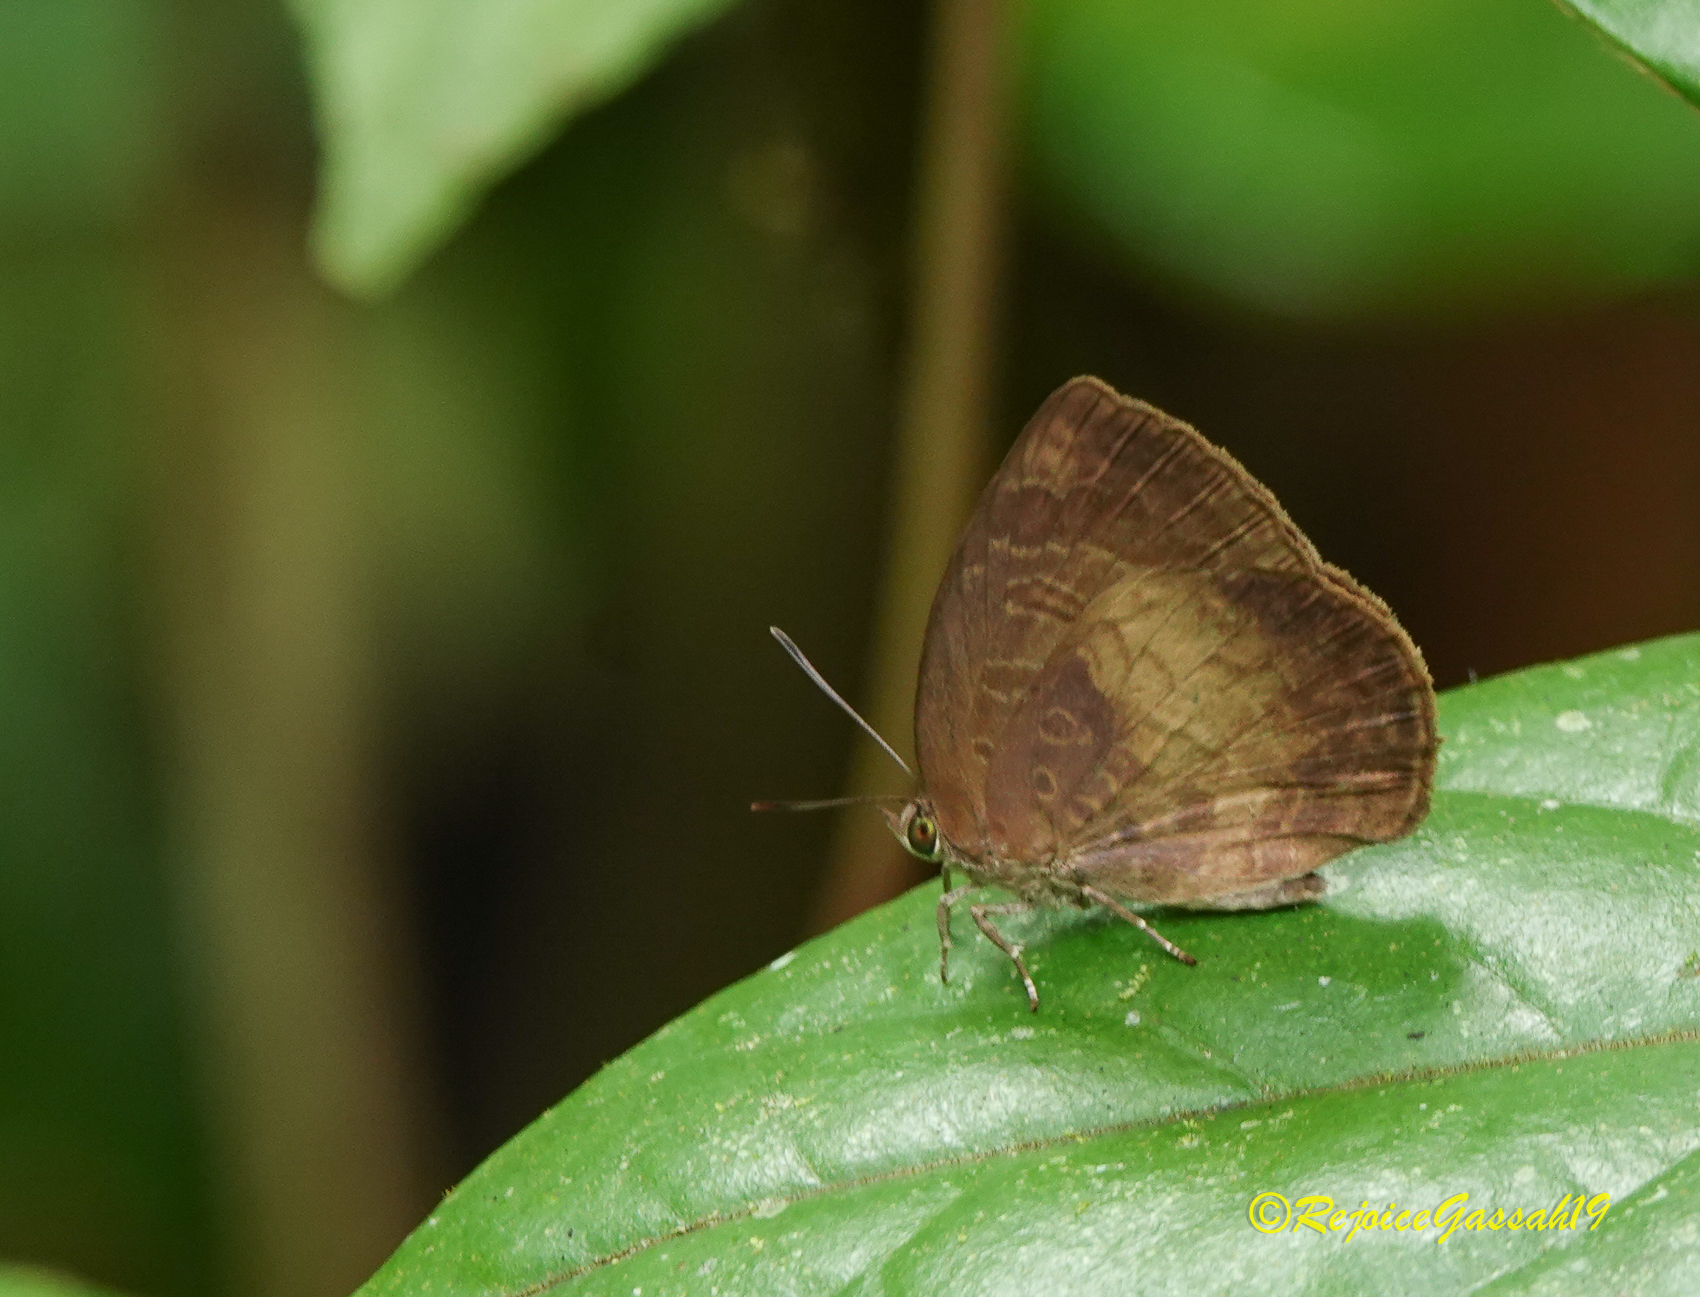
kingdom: Animalia
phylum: Arthropoda
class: Insecta
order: Lepidoptera
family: Lycaenidae
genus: Arhopala
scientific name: Arhopala perimuta
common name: Yellowdisc oakblue
